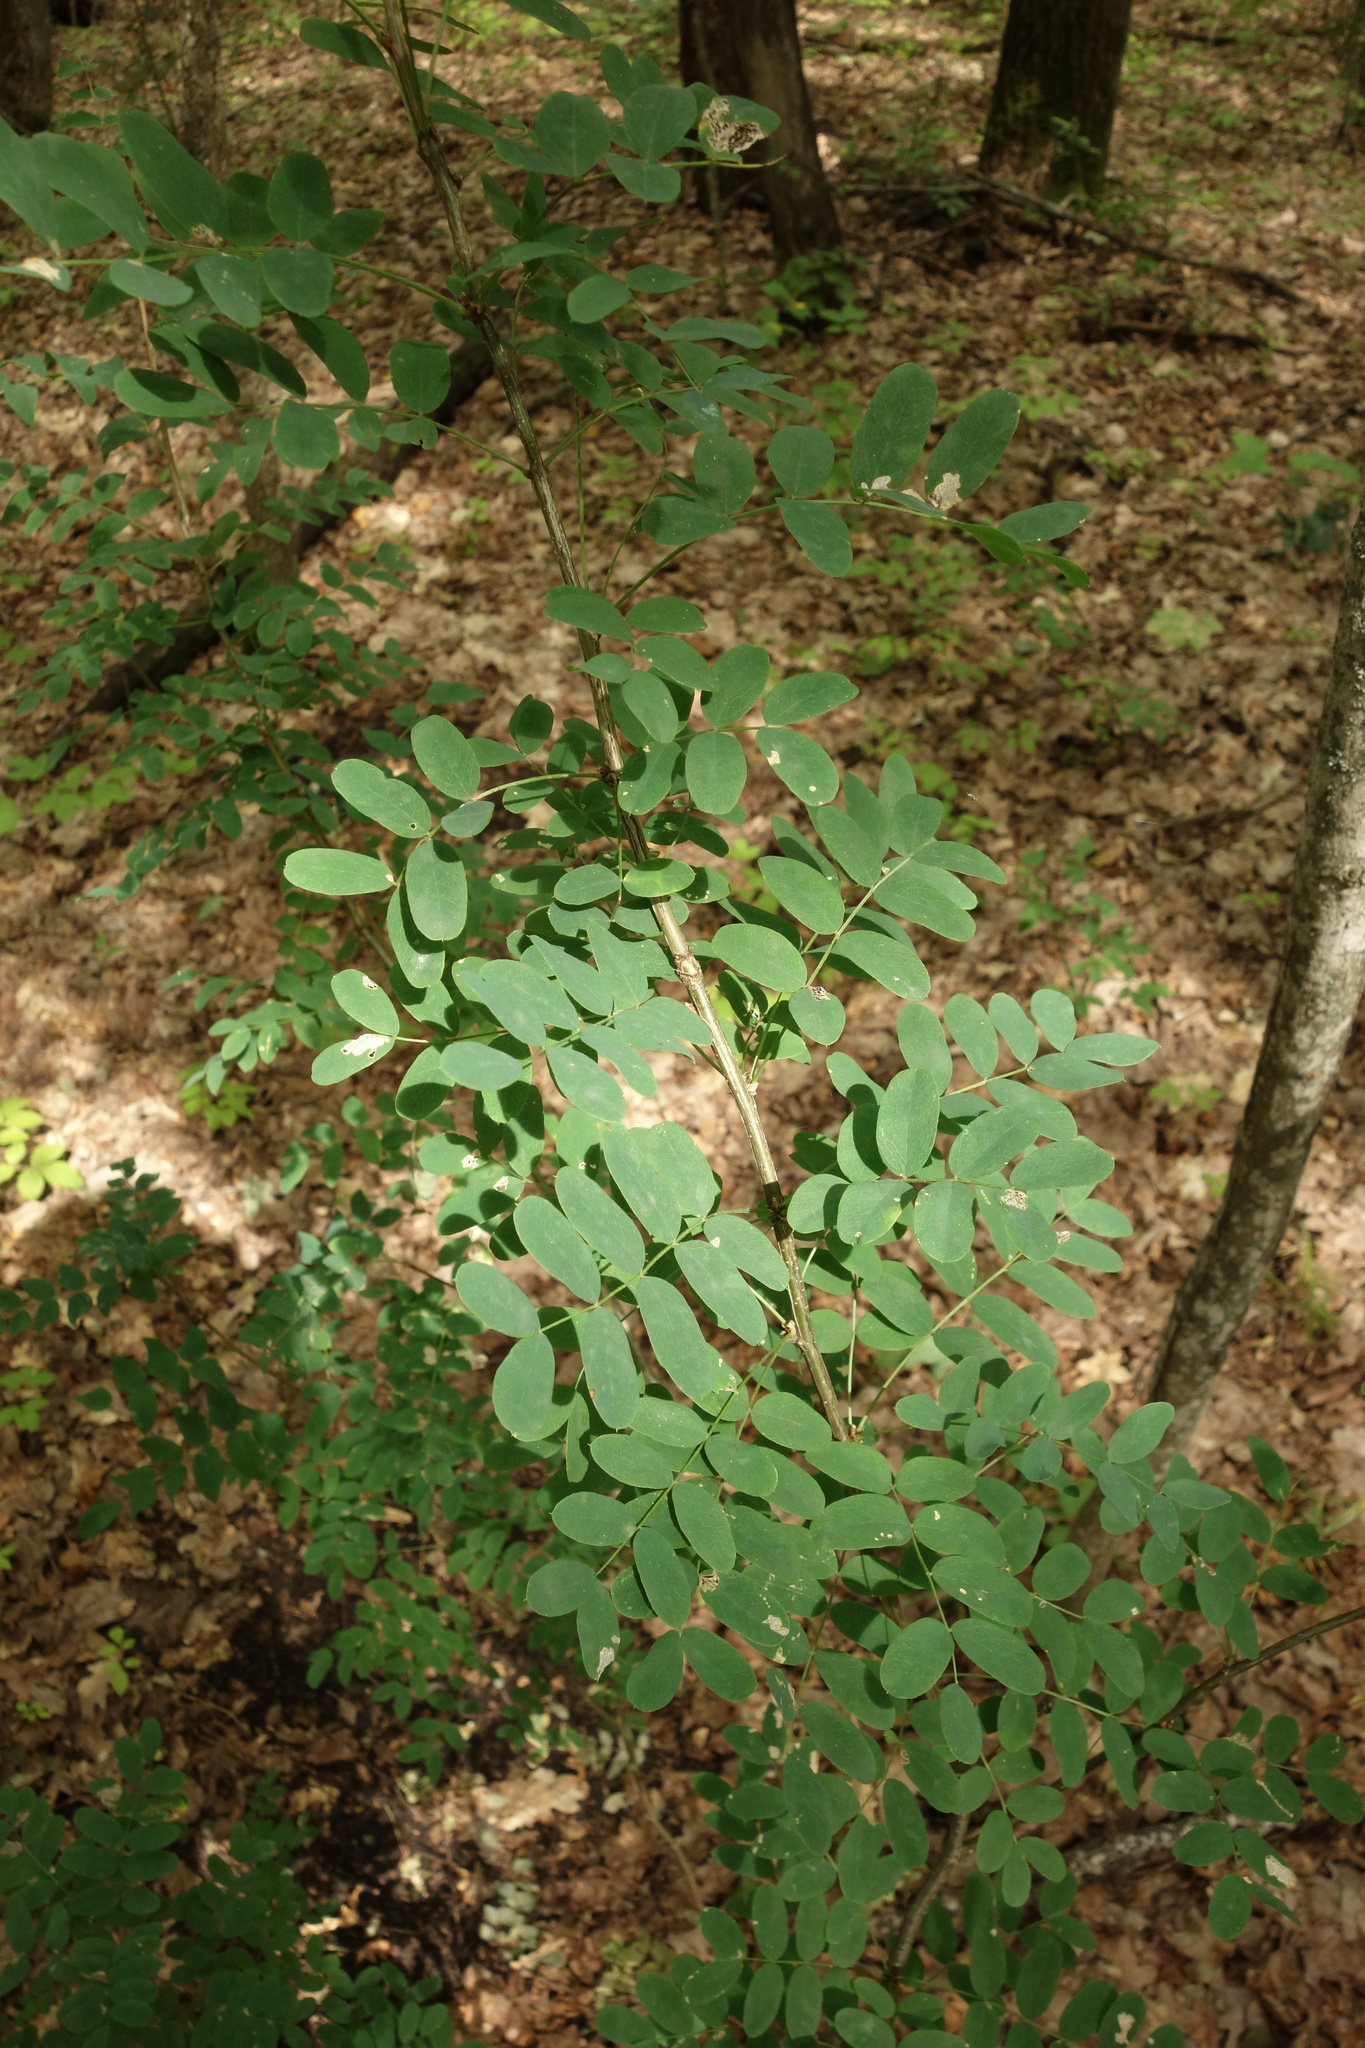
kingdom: Plantae
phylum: Tracheophyta
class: Magnoliopsida
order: Fabales
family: Fabaceae
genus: Caragana
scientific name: Caragana arborescens
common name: Siberian peashrub
